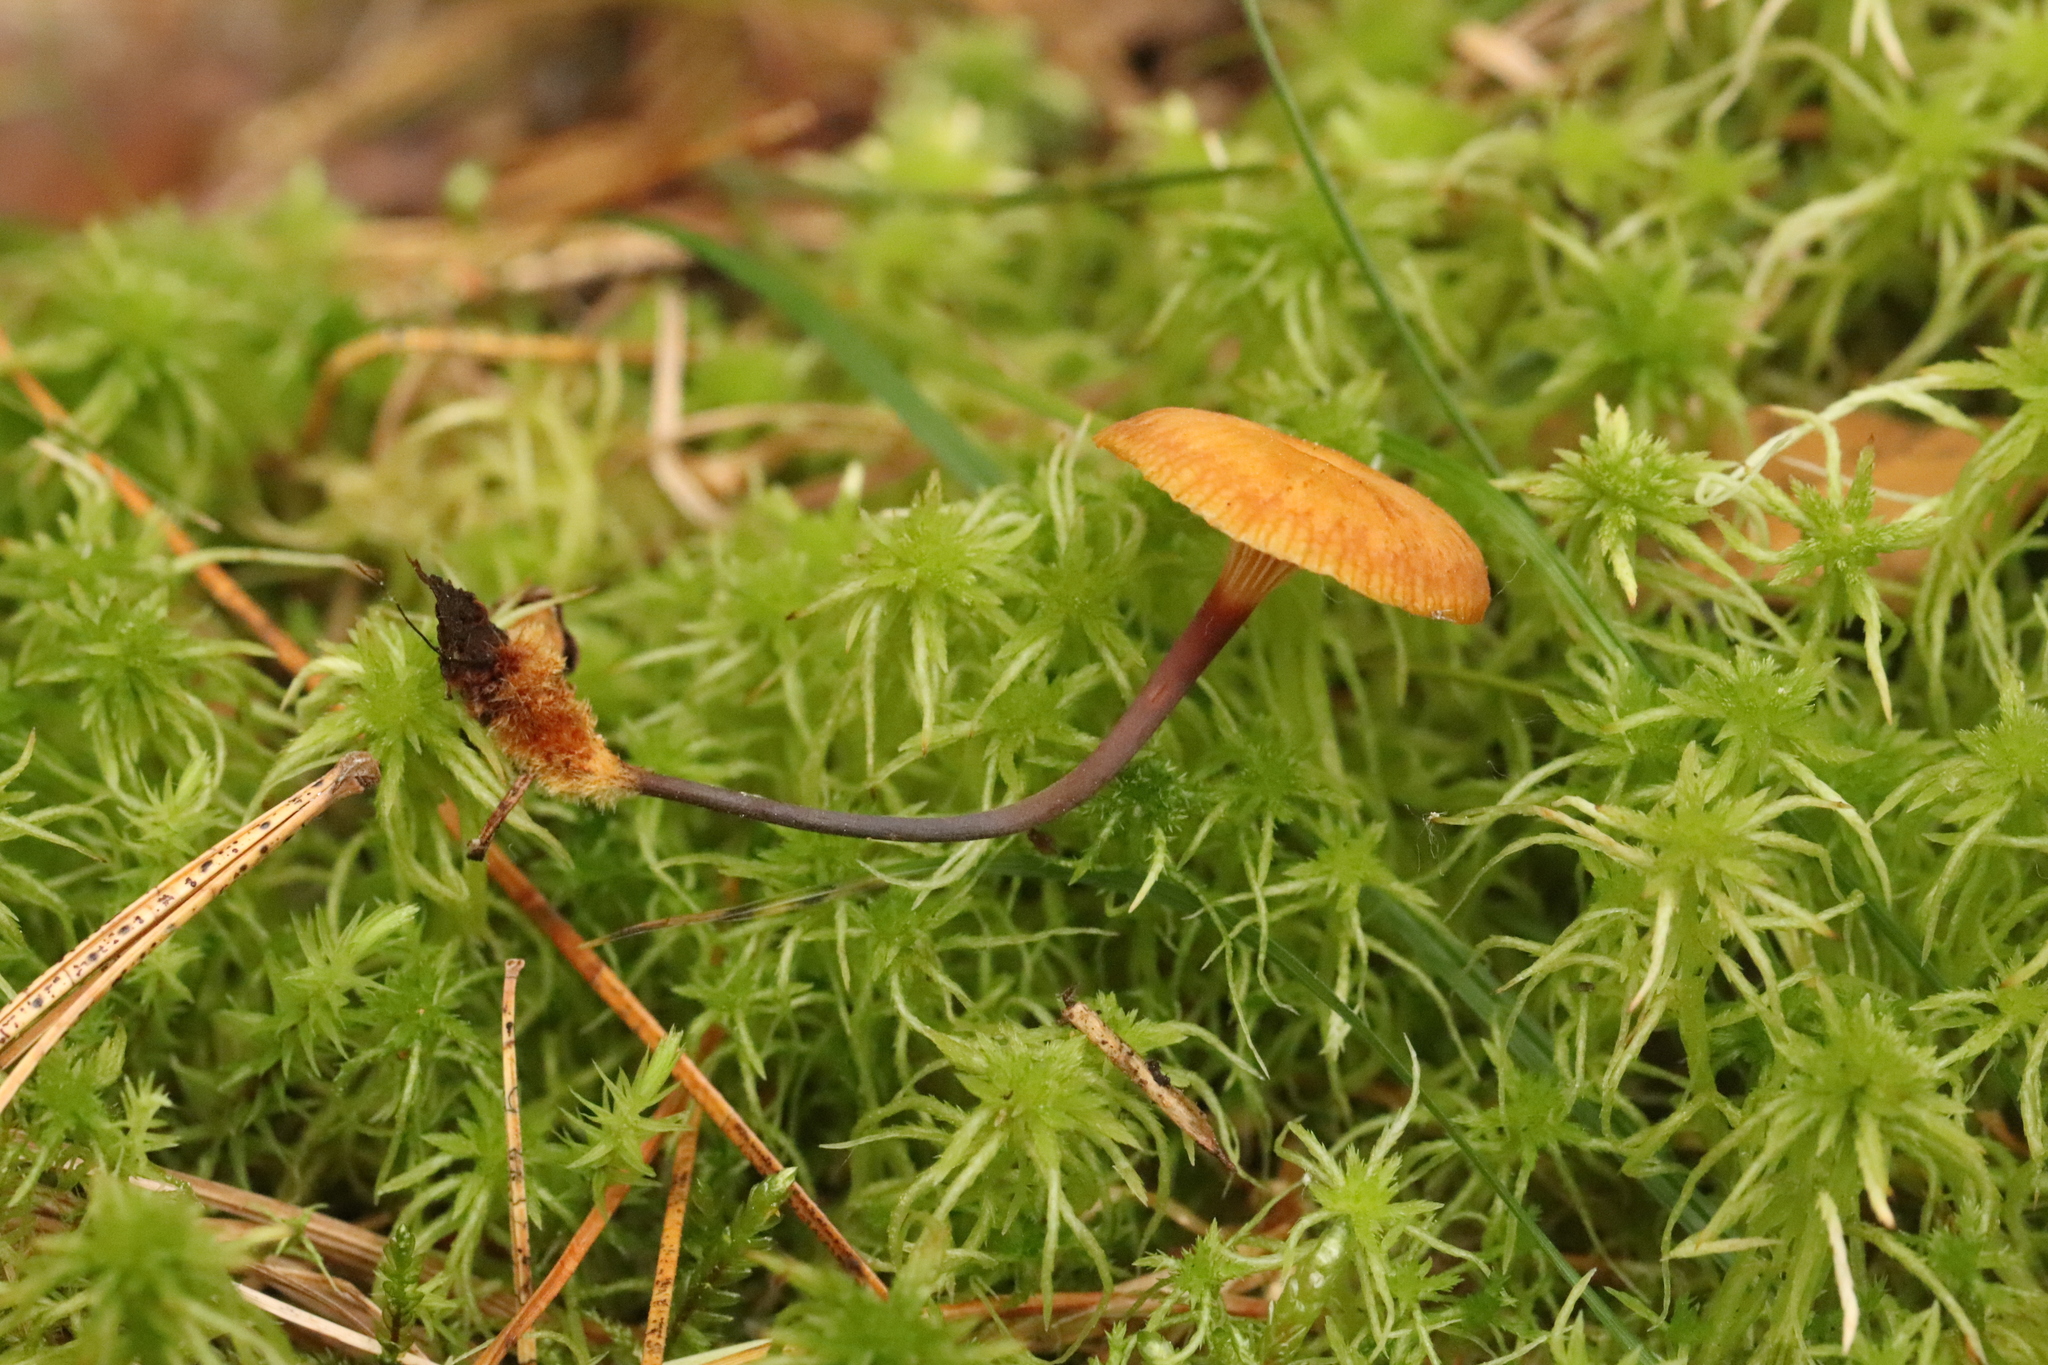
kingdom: Fungi
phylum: Basidiomycota
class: Agaricomycetes
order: Agaricales
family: Mycenaceae
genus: Xeromphalina
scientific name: Xeromphalina cauticinalis
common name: Pinelitter gingertail
